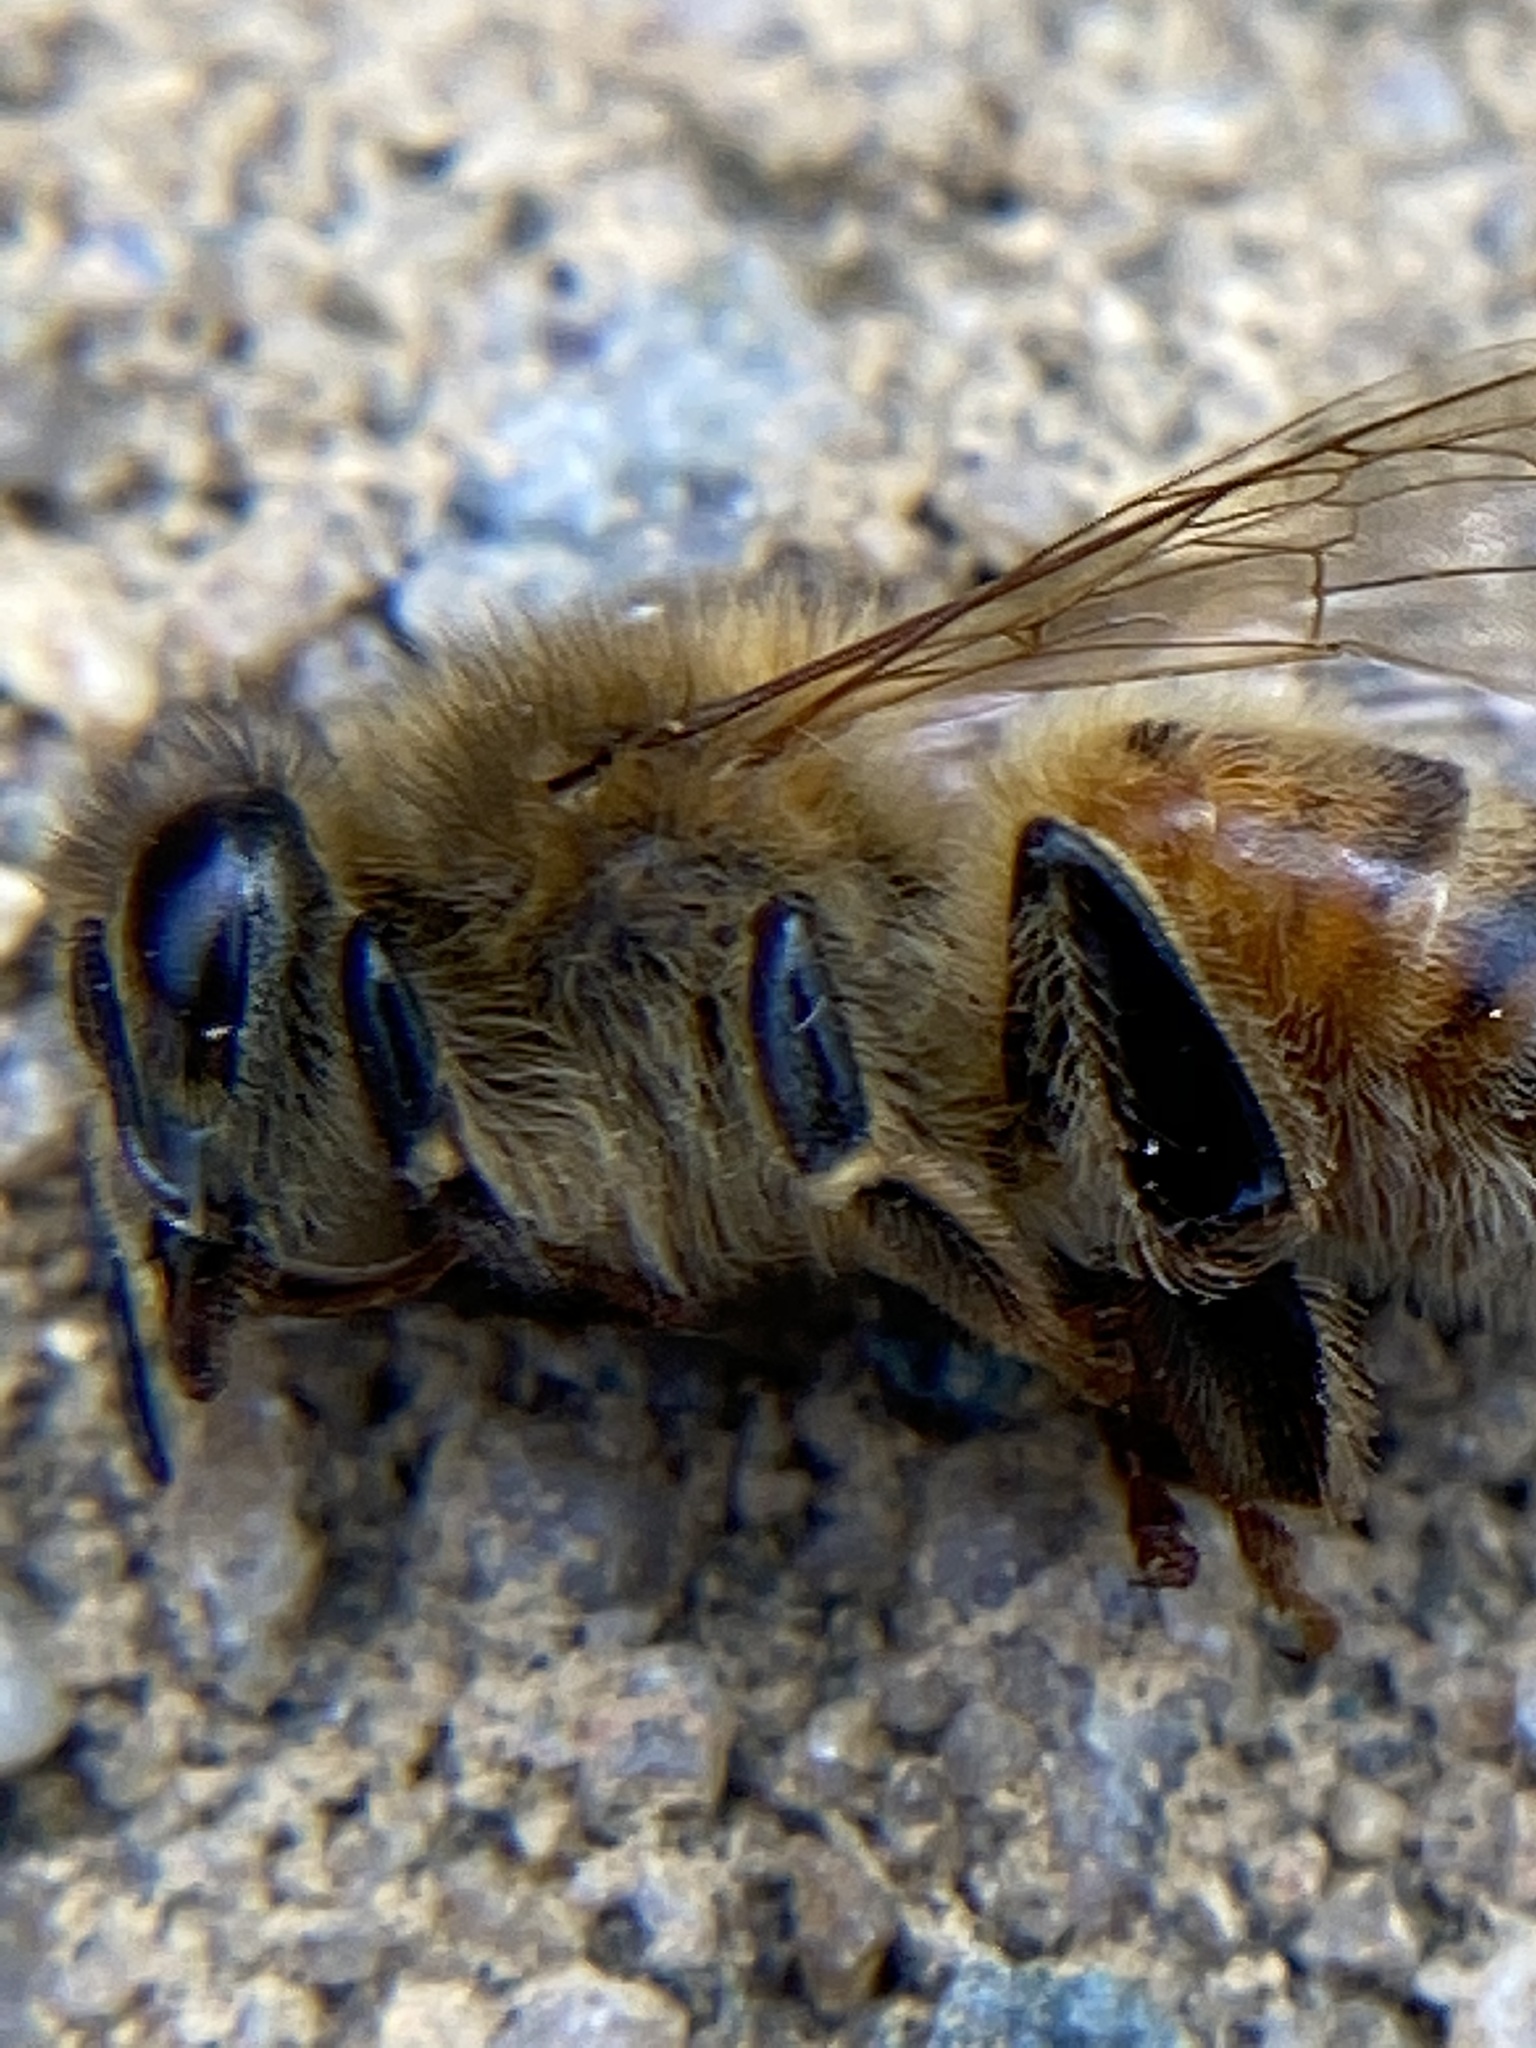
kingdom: Animalia
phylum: Arthropoda
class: Insecta
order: Hymenoptera
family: Apidae
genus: Apis
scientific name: Apis mellifera
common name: Honey bee
